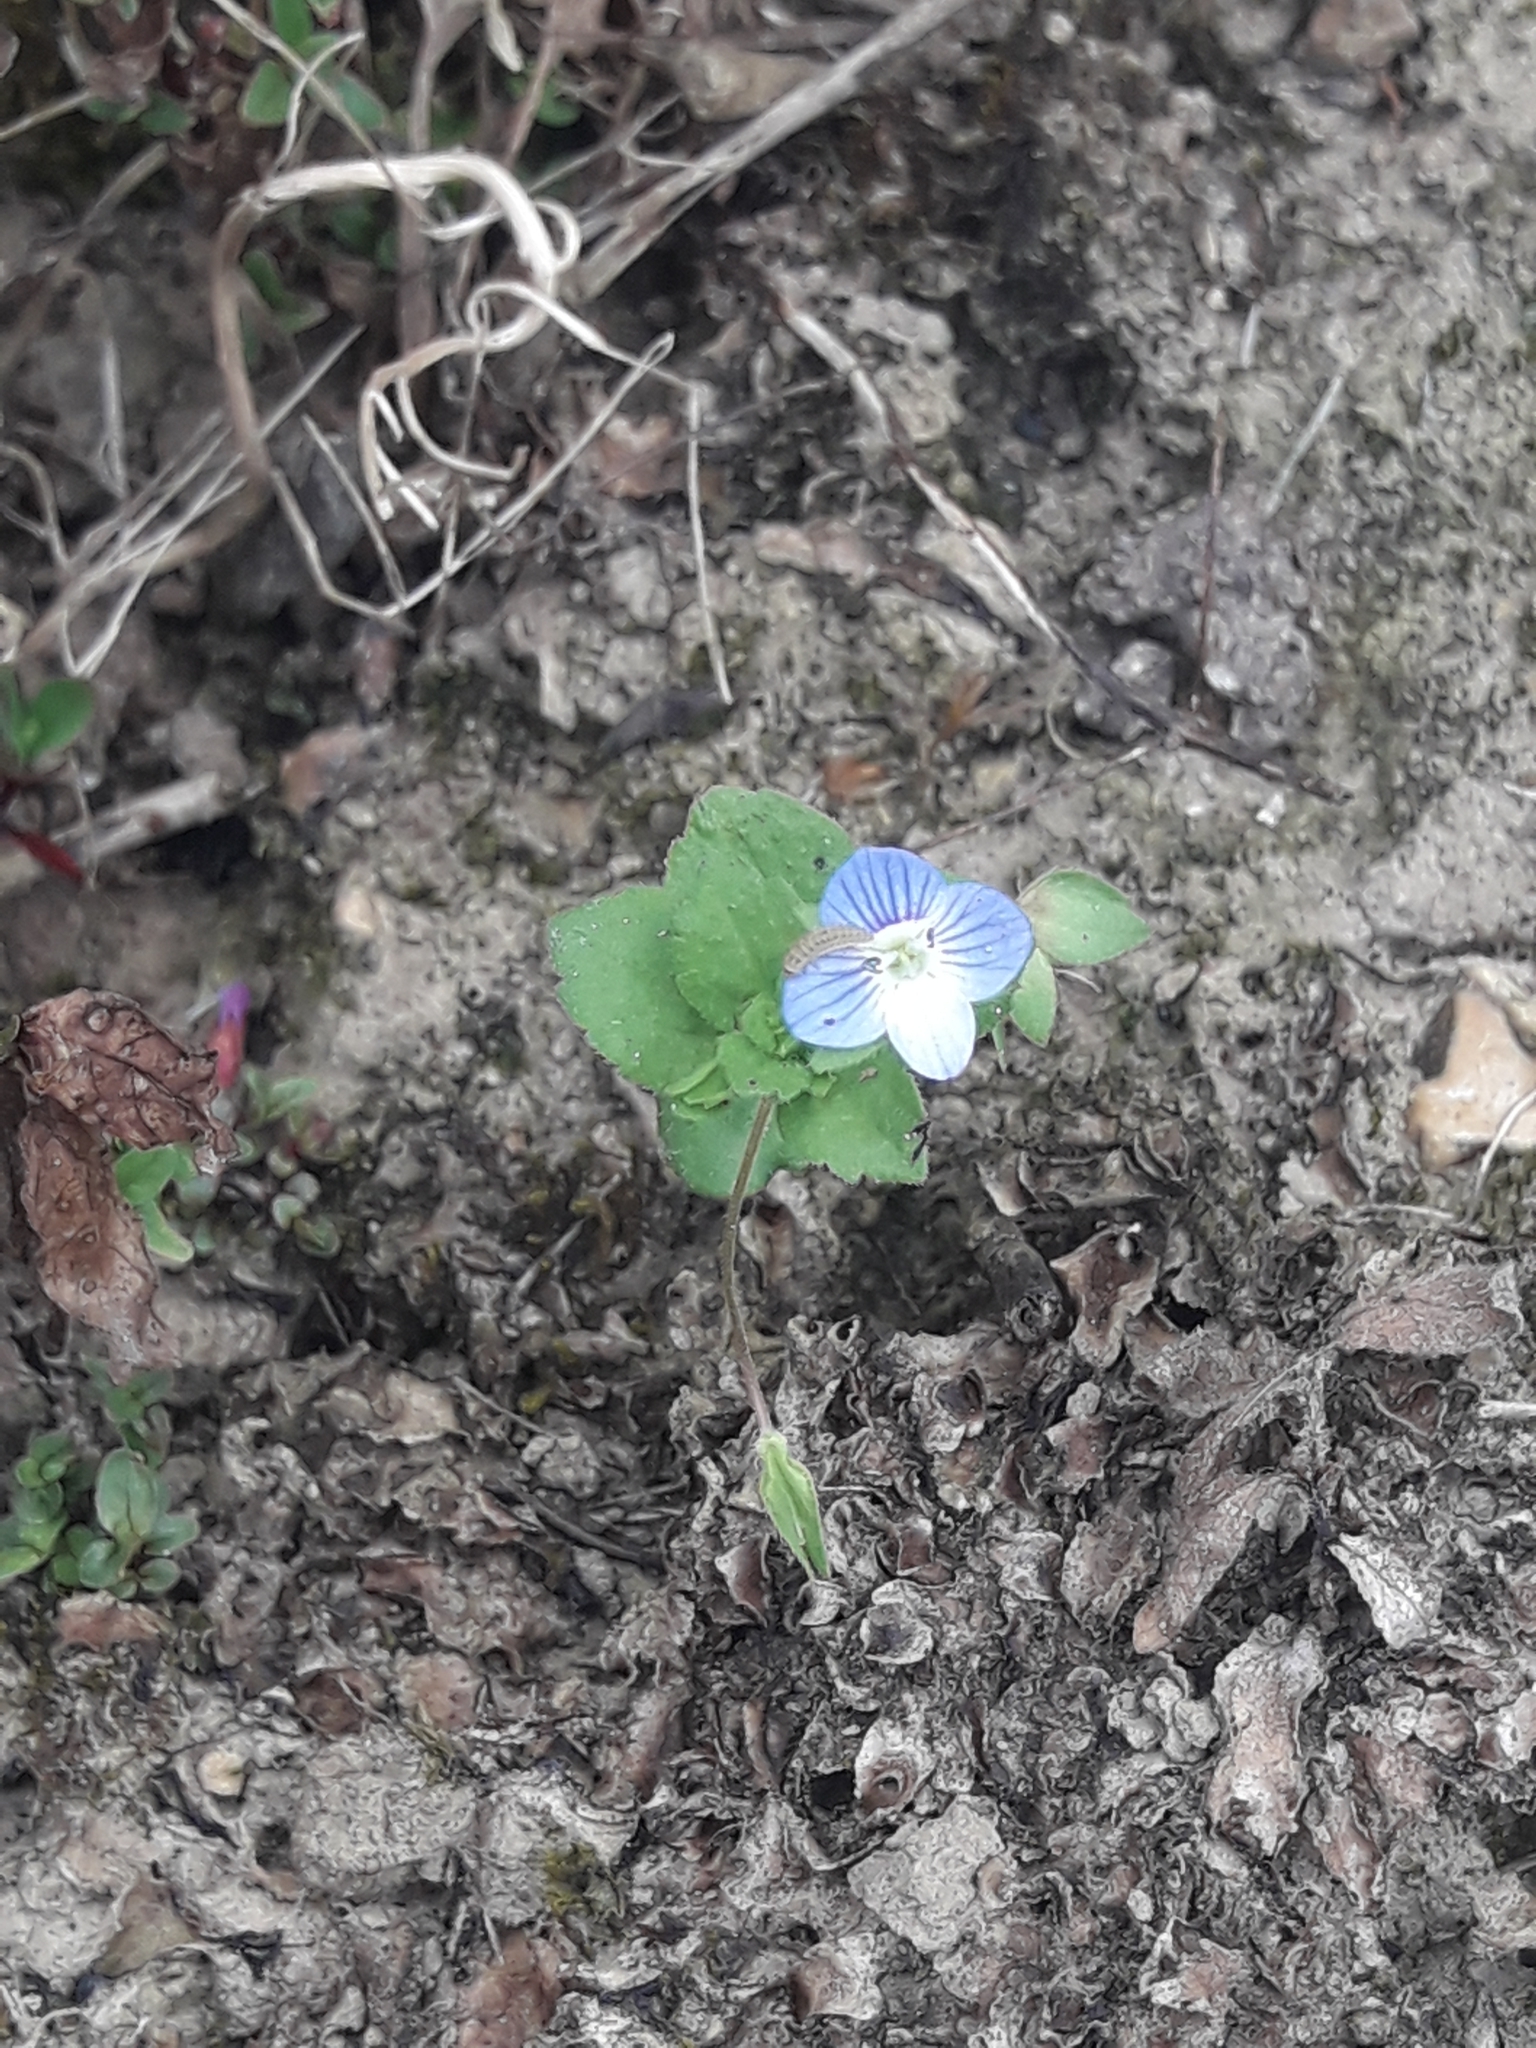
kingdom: Plantae
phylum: Tracheophyta
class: Magnoliopsida
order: Lamiales
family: Plantaginaceae
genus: Veronica
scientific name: Veronica persica
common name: Common field-speedwell
